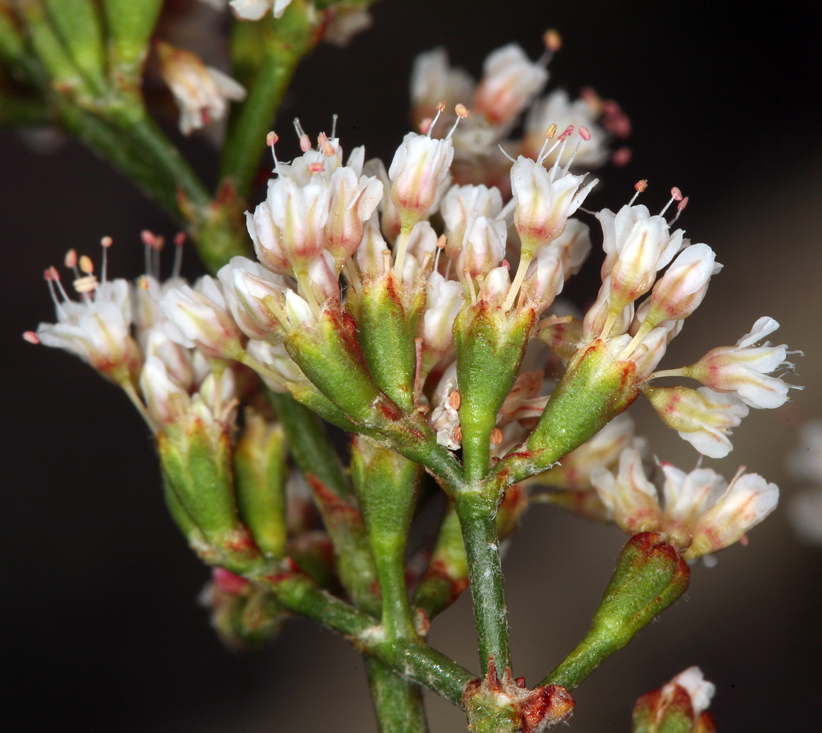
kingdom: Plantae
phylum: Tracheophyta
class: Magnoliopsida
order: Caryophyllales
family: Polygonaceae
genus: Eriogonum
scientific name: Eriogonum microtheca
